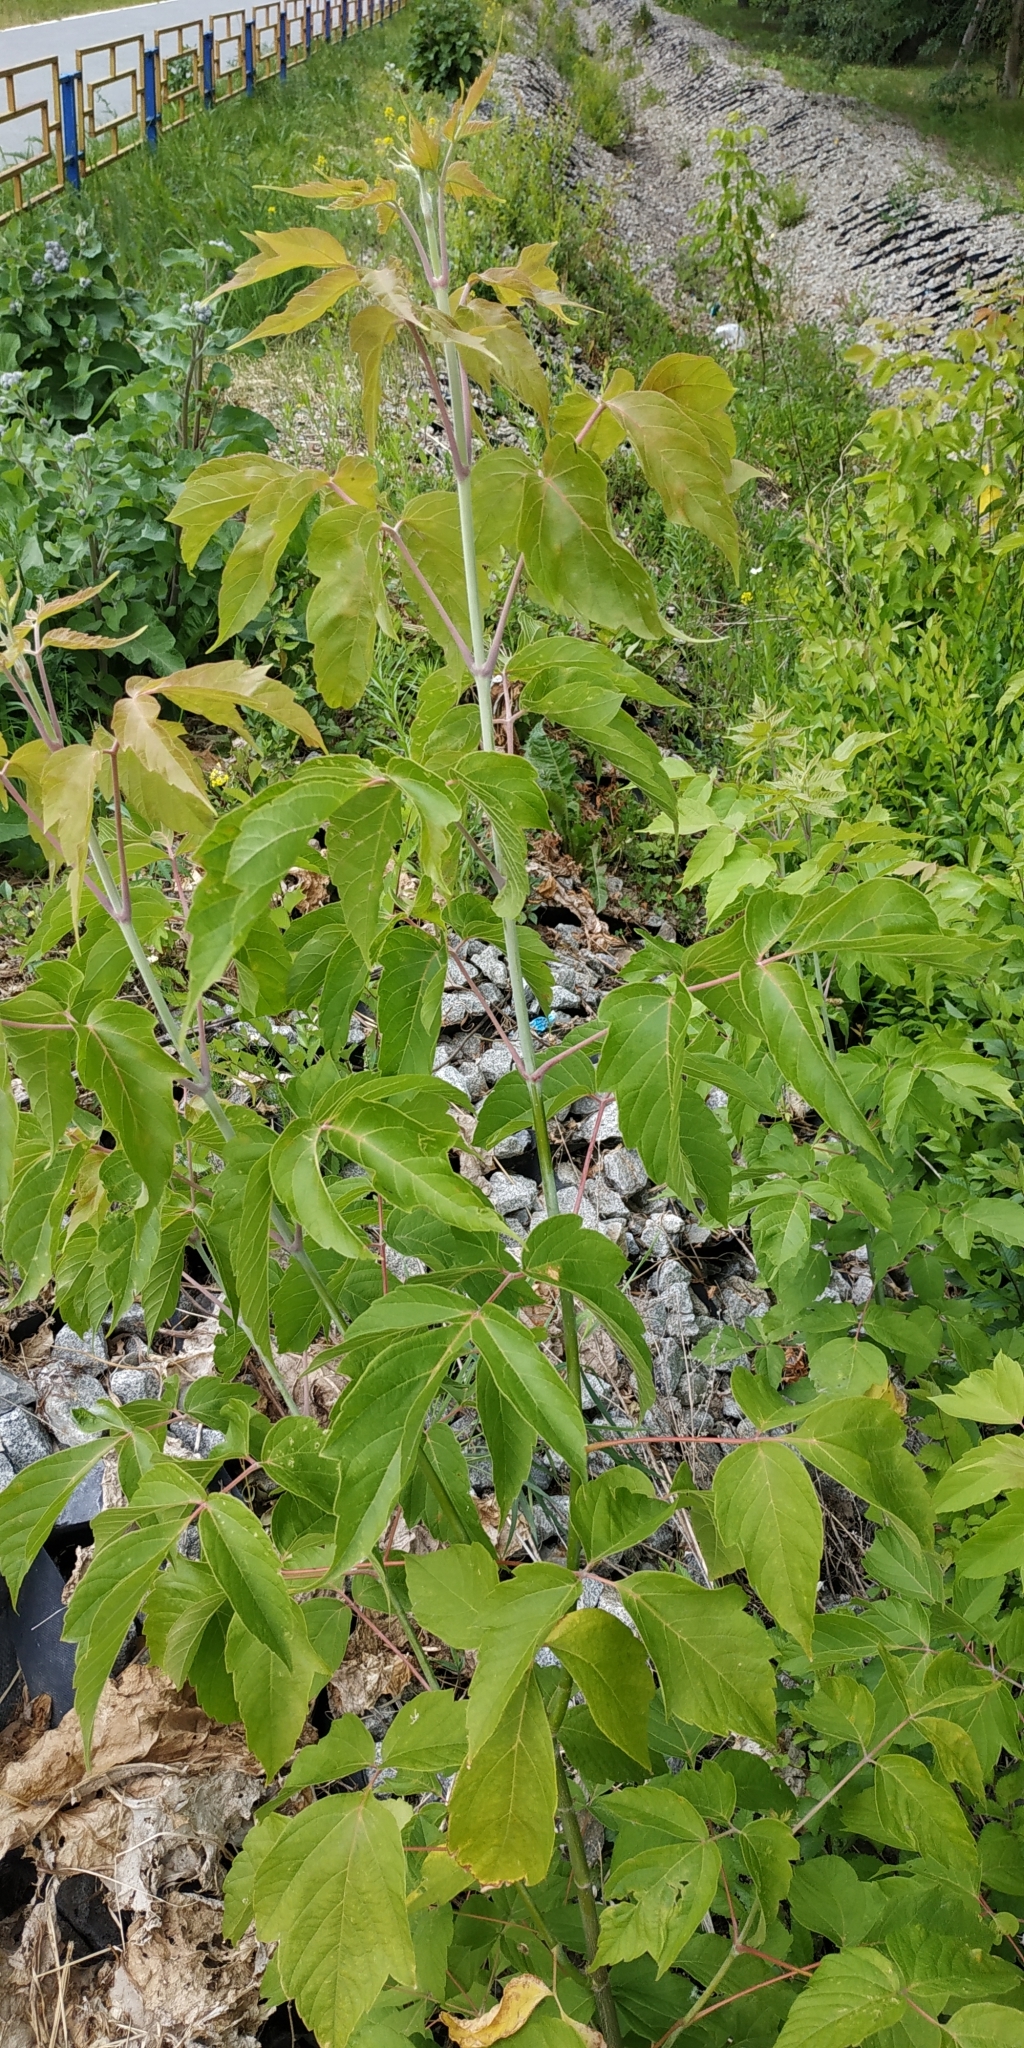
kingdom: Plantae
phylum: Tracheophyta
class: Magnoliopsida
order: Sapindales
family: Sapindaceae
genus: Acer
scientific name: Acer negundo
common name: Ashleaf maple
